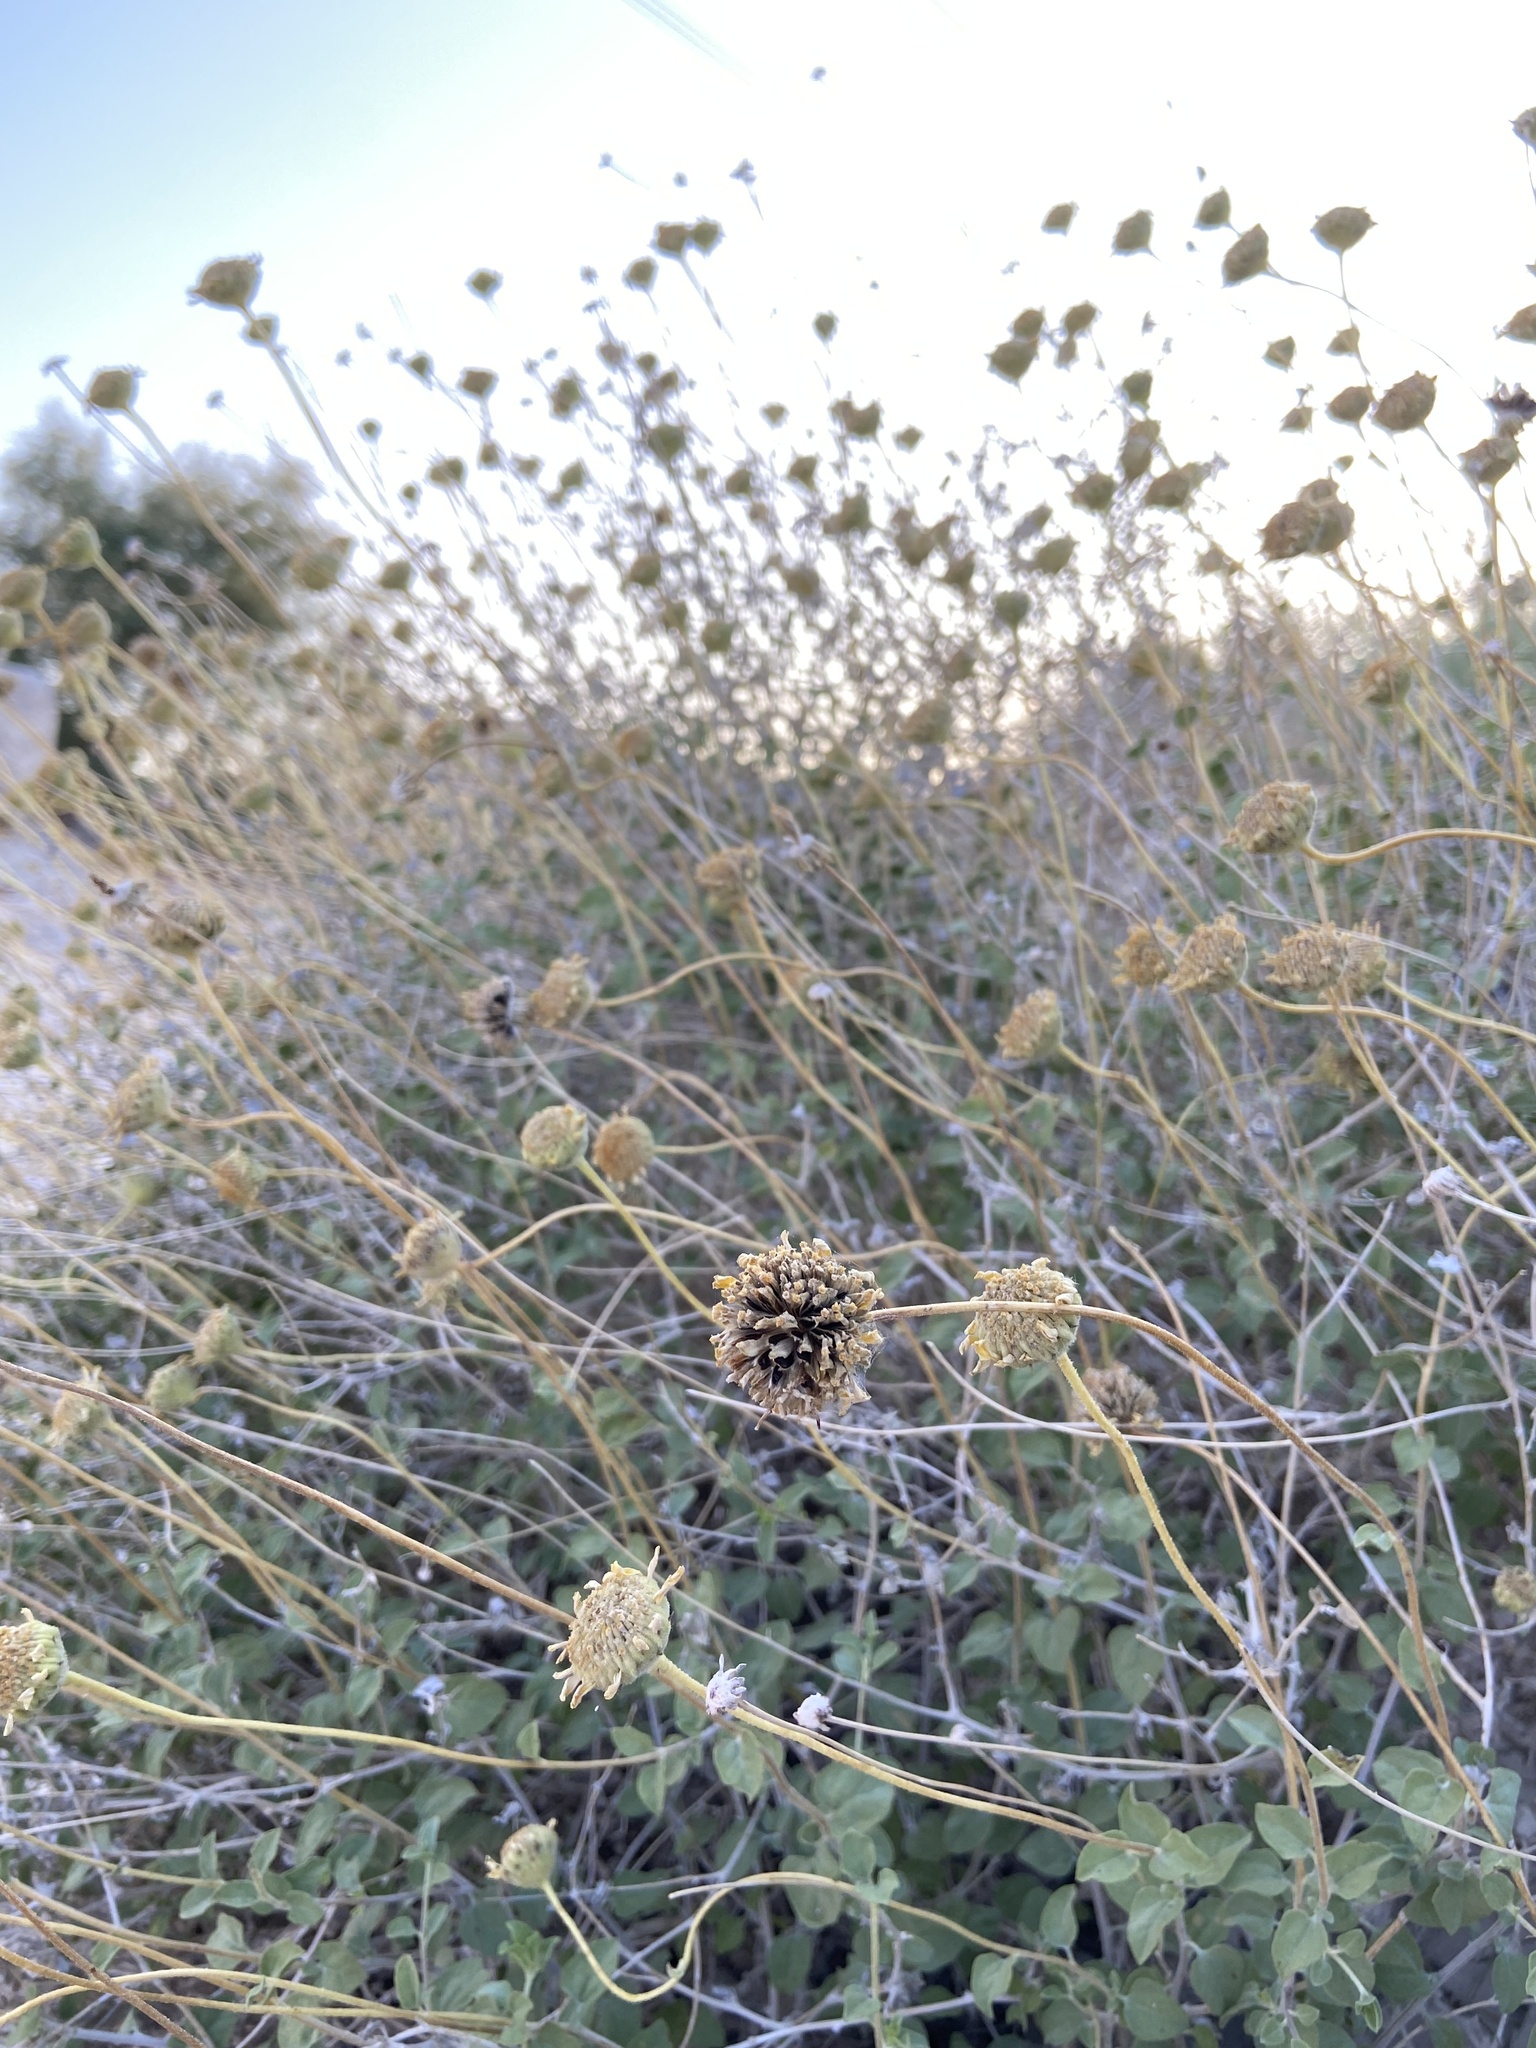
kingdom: Plantae
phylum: Tracheophyta
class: Magnoliopsida
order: Asterales
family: Asteraceae
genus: Encelia
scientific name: Encelia virginensis
